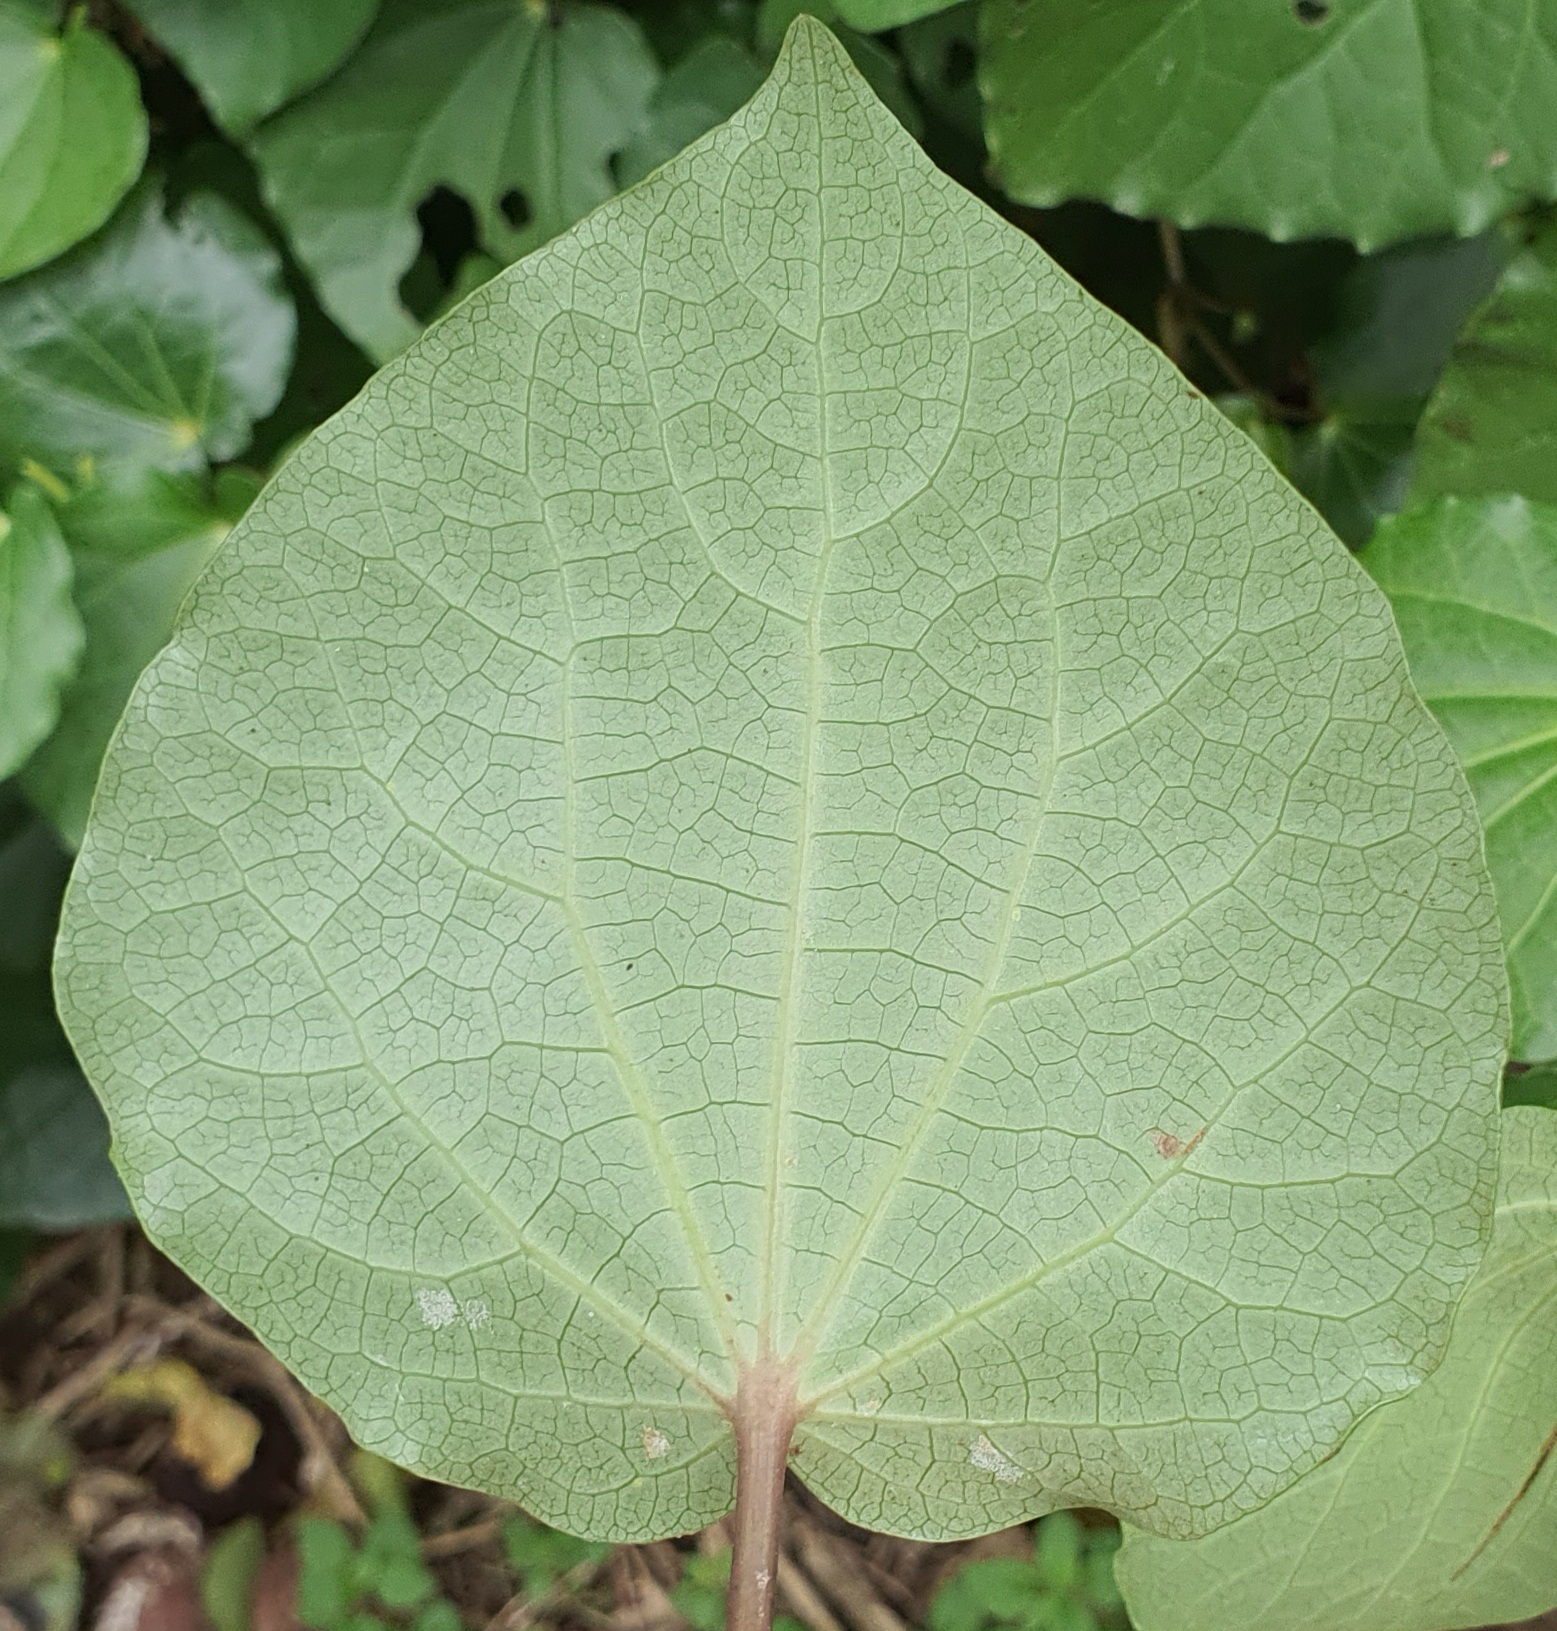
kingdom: Plantae
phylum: Tracheophyta
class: Magnoliopsida
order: Piperales
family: Piperaceae
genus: Macropiper
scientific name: Macropiper excelsum
